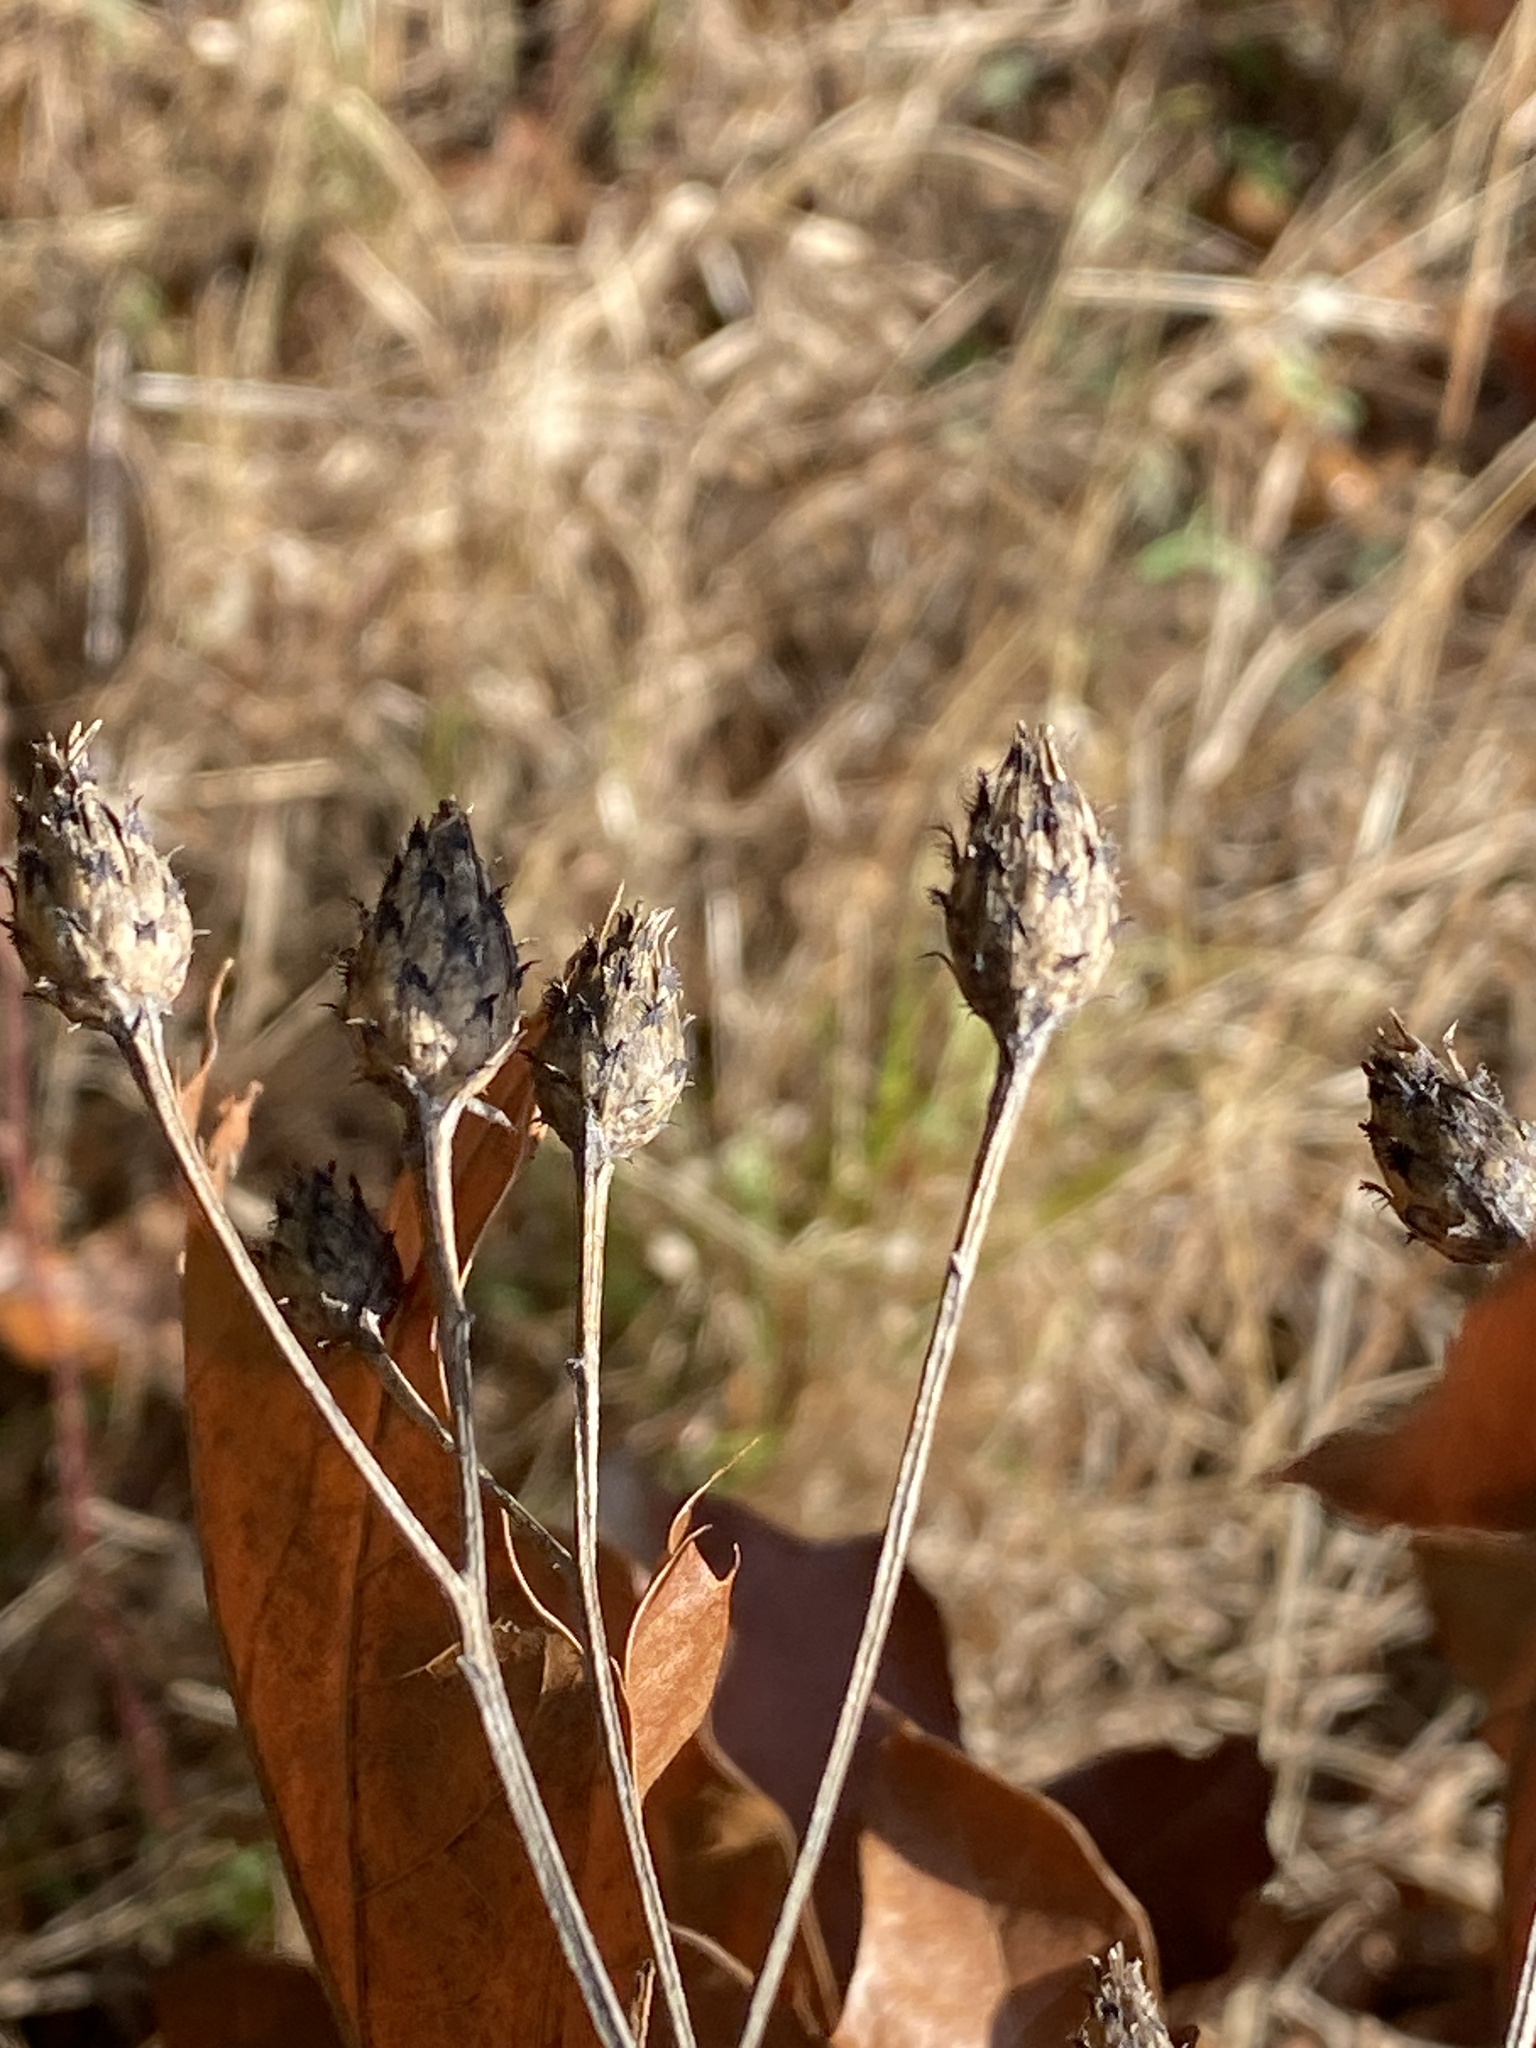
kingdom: Plantae
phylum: Tracheophyta
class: Magnoliopsida
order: Asterales
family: Asteraceae
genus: Centaurea
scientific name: Centaurea stoebe
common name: Spotted knapweed
